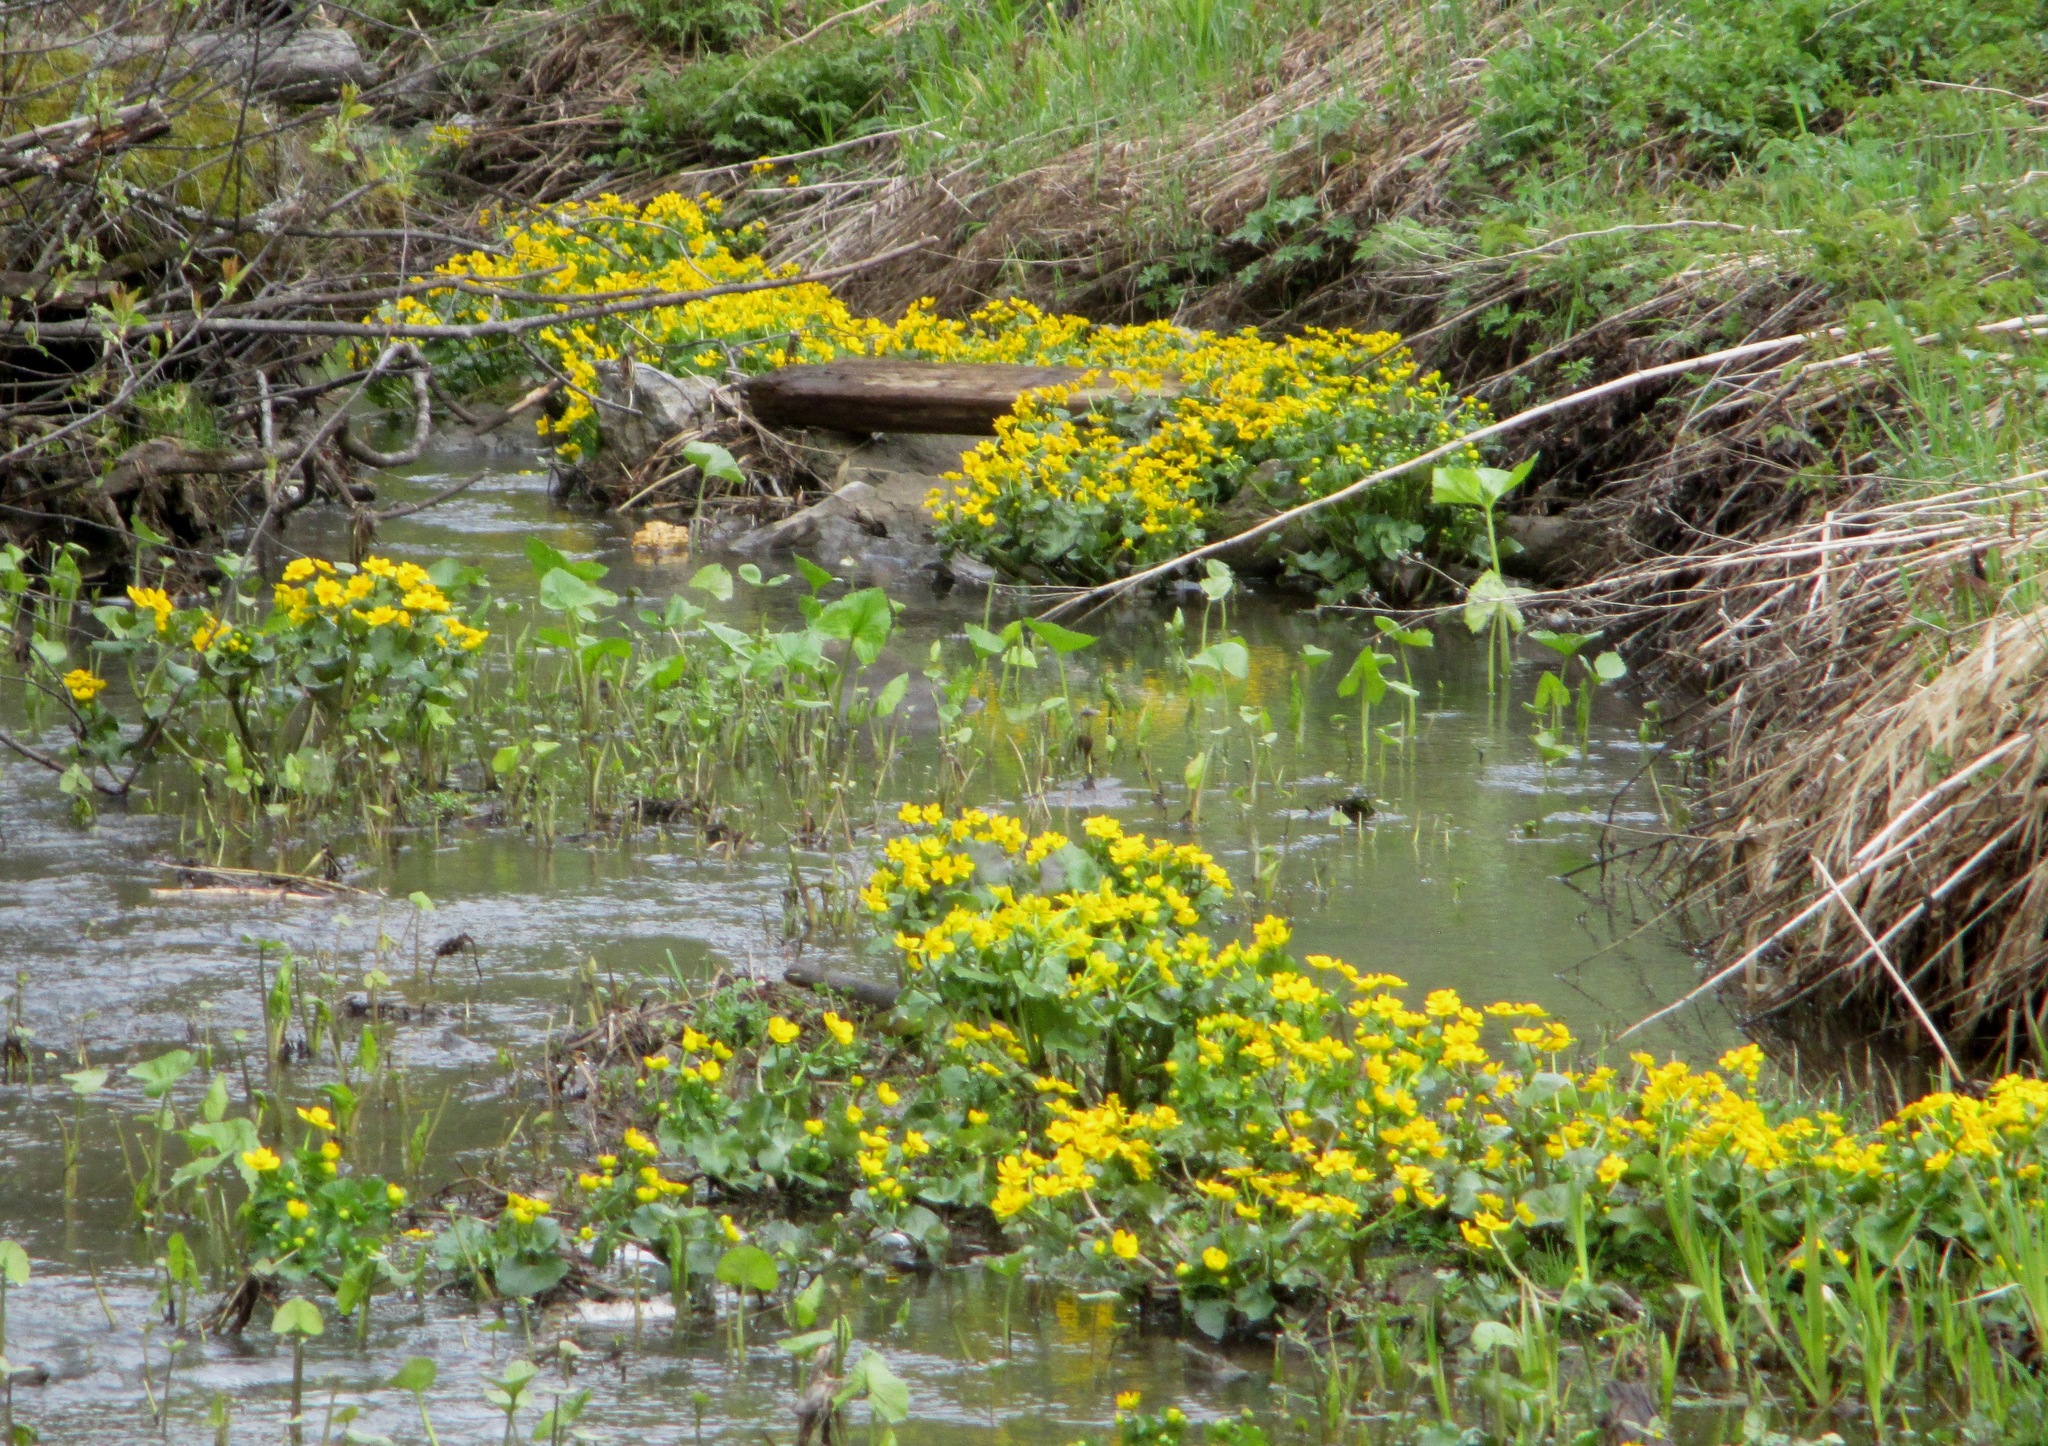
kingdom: Plantae
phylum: Tracheophyta
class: Magnoliopsida
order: Ranunculales
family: Ranunculaceae
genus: Caltha
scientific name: Caltha palustris
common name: Marsh marigold
